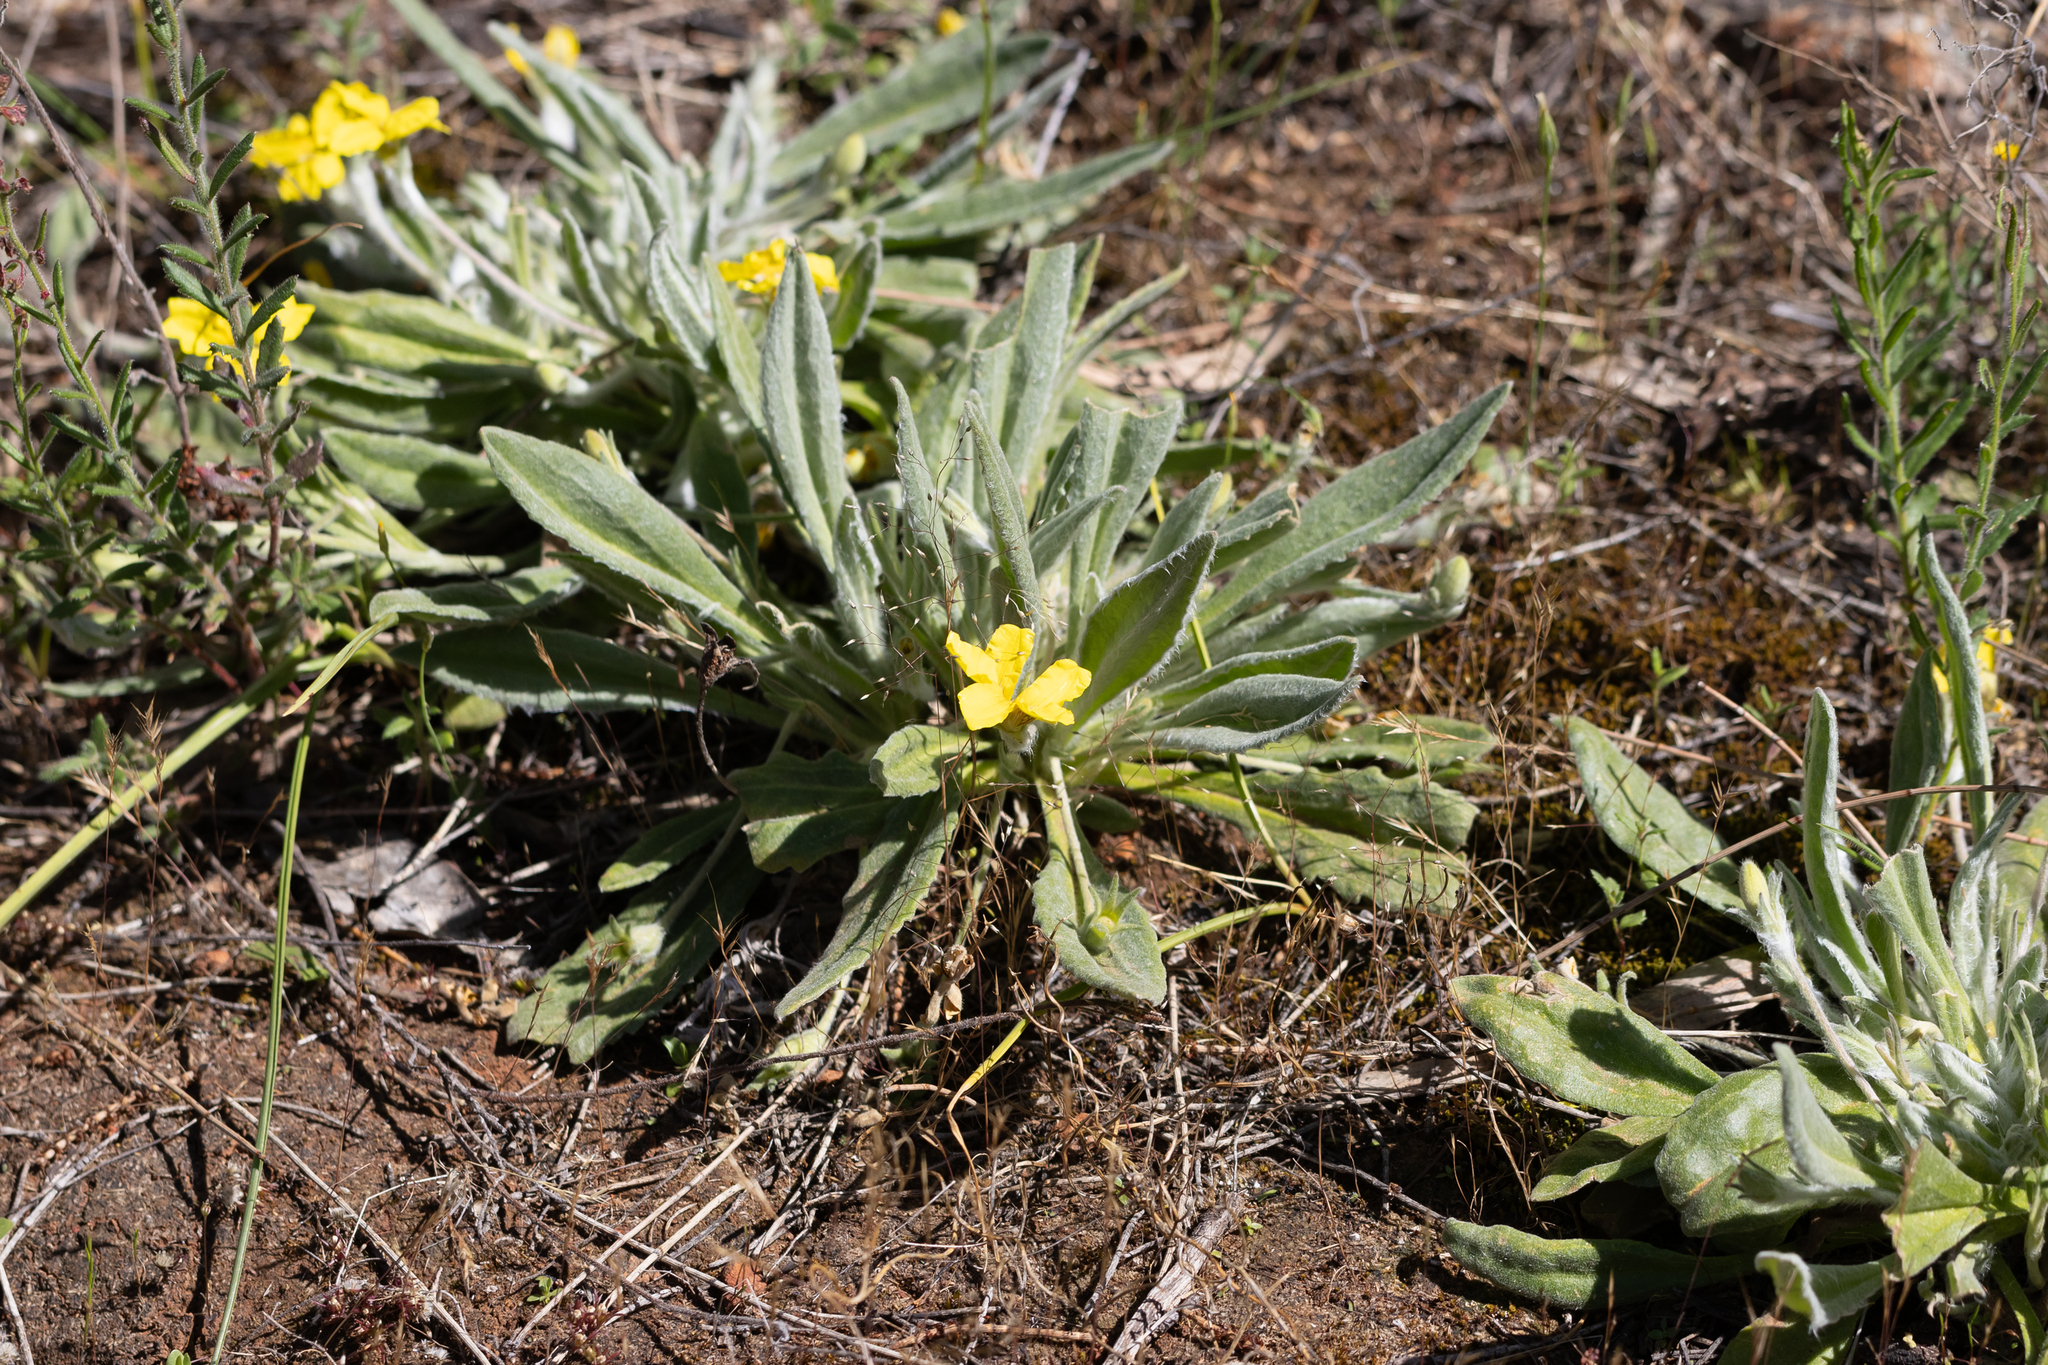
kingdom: Plantae
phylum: Tracheophyta
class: Magnoliopsida
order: Asterales
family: Goodeniaceae
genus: Goodenia
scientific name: Goodenia robusta
